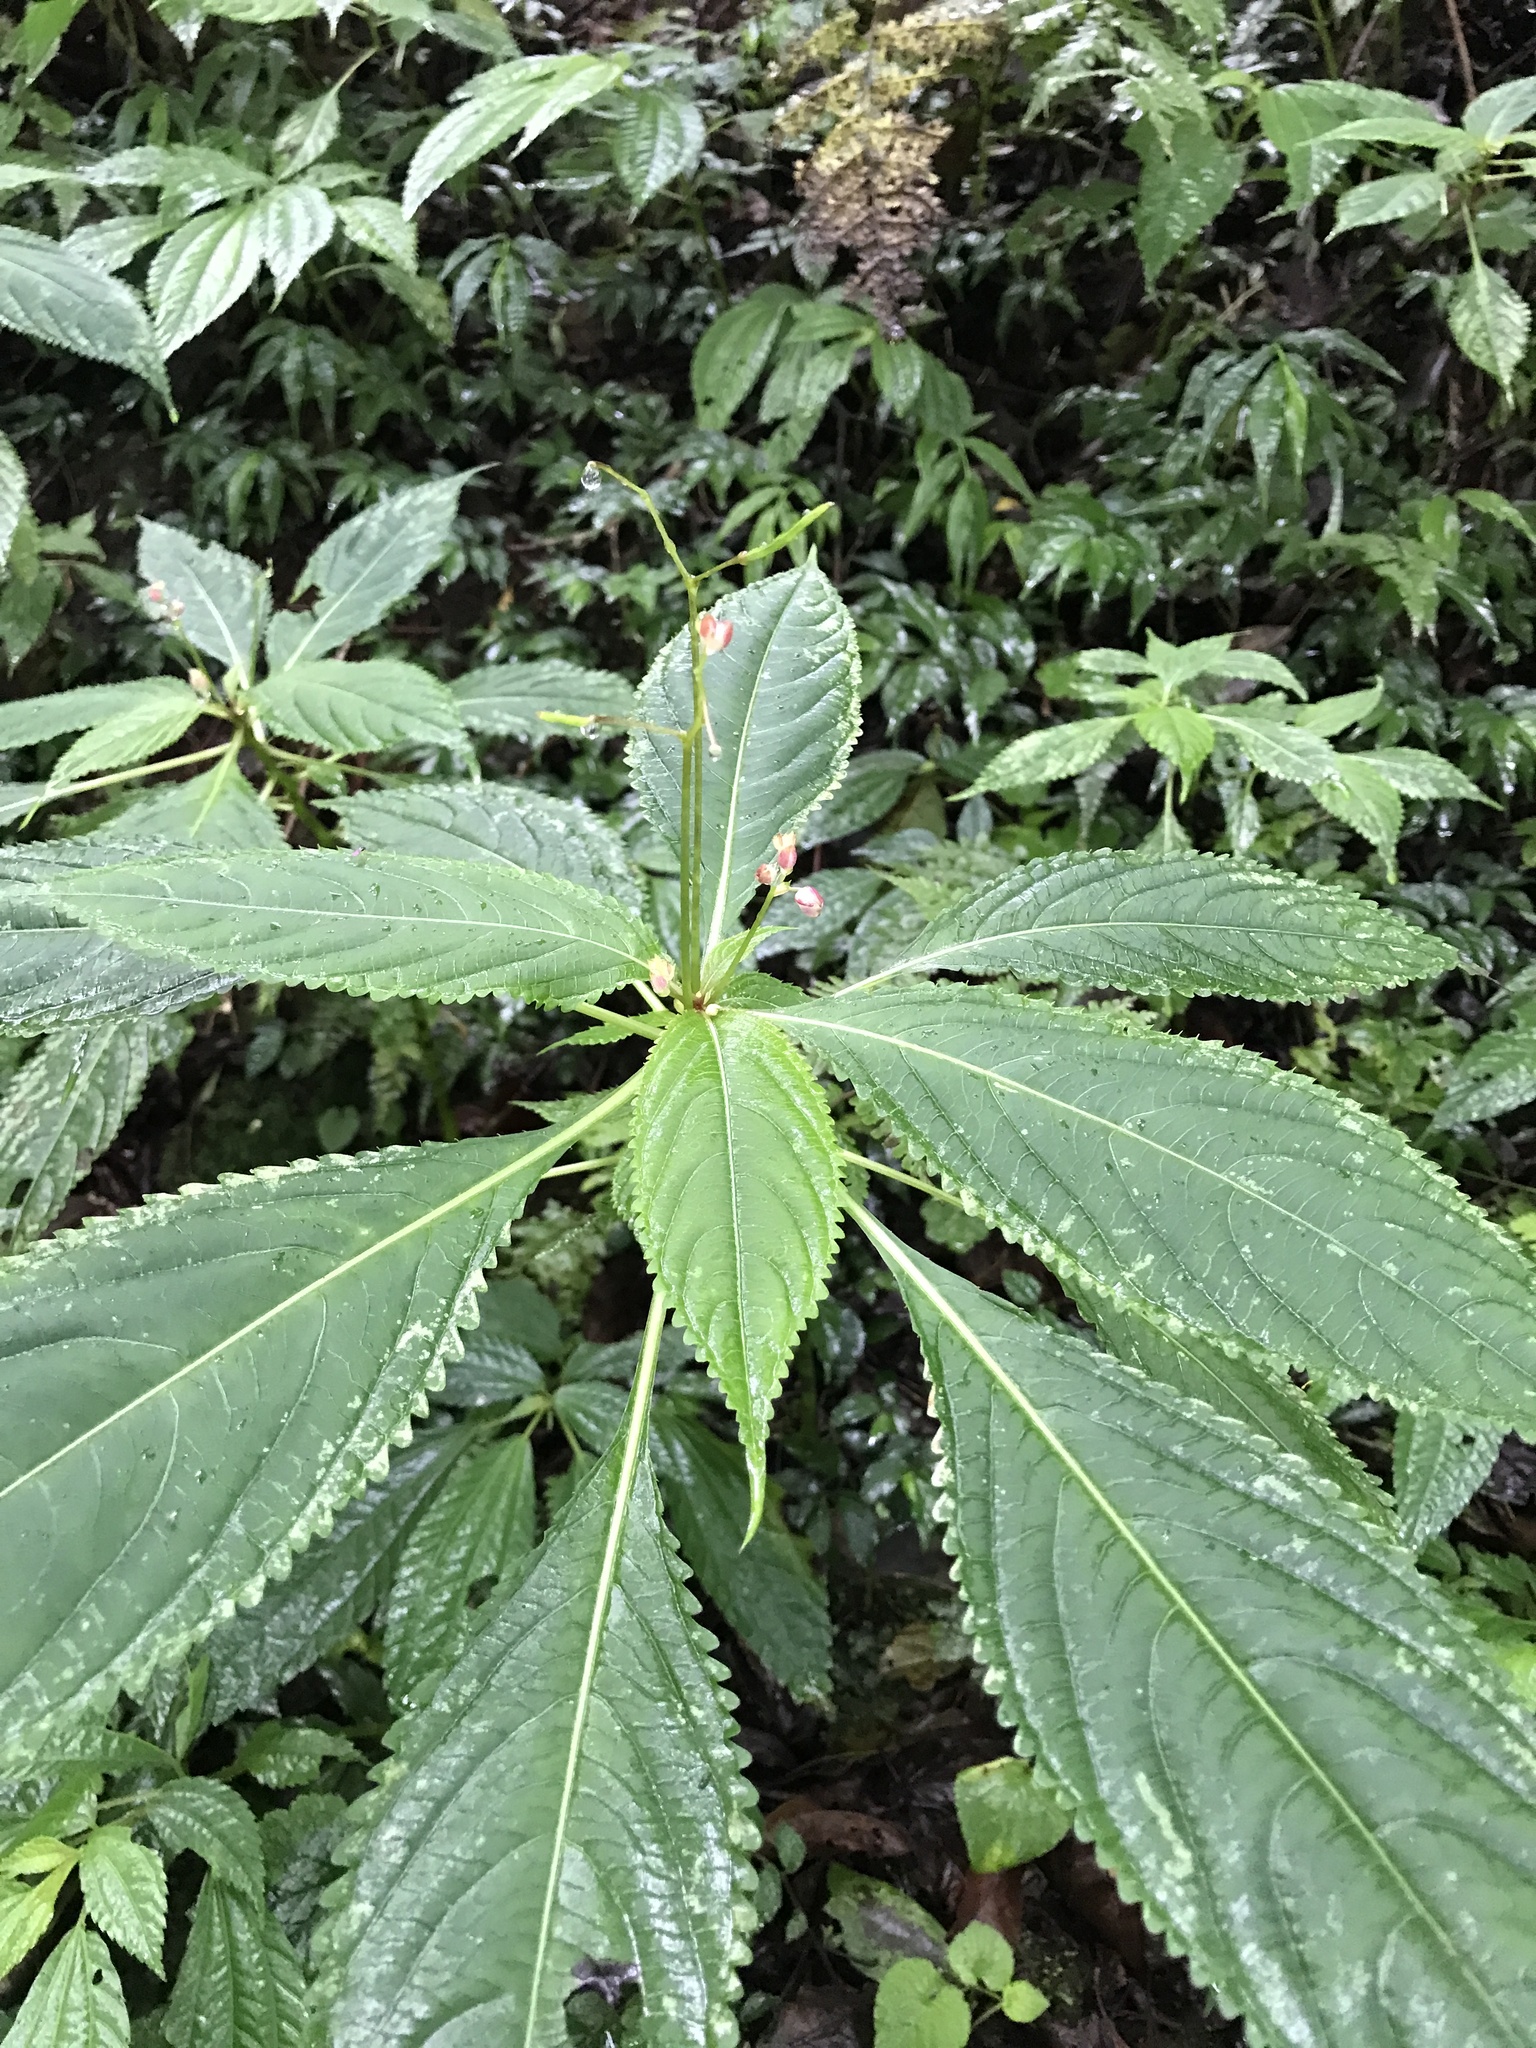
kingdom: Plantae
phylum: Tracheophyta
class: Magnoliopsida
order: Ericales
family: Balsaminaceae
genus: Impatiens
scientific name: Impatiens devolii
